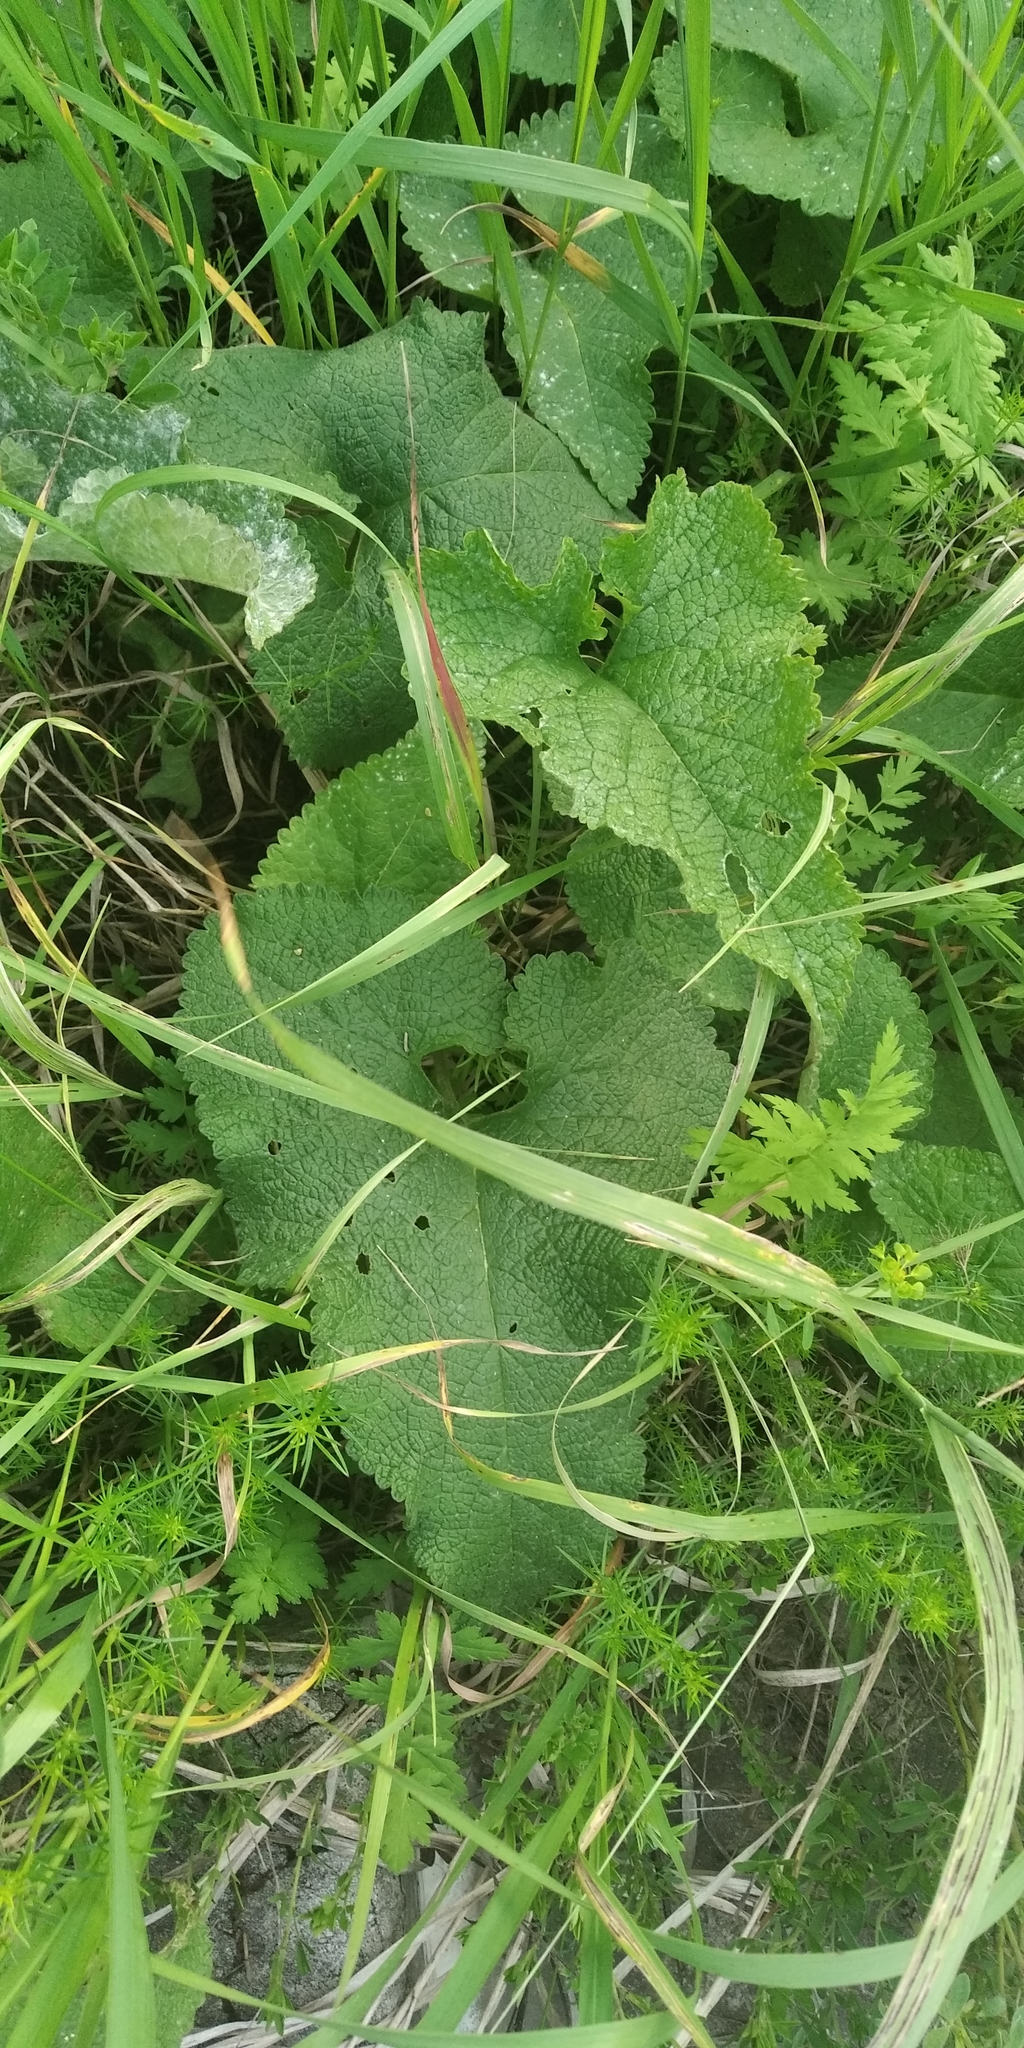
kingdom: Plantae
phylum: Tracheophyta
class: Magnoliopsida
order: Lamiales
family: Lamiaceae
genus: Phlomoides
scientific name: Phlomoides tuberosa
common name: Tuberous jerusalem sage
